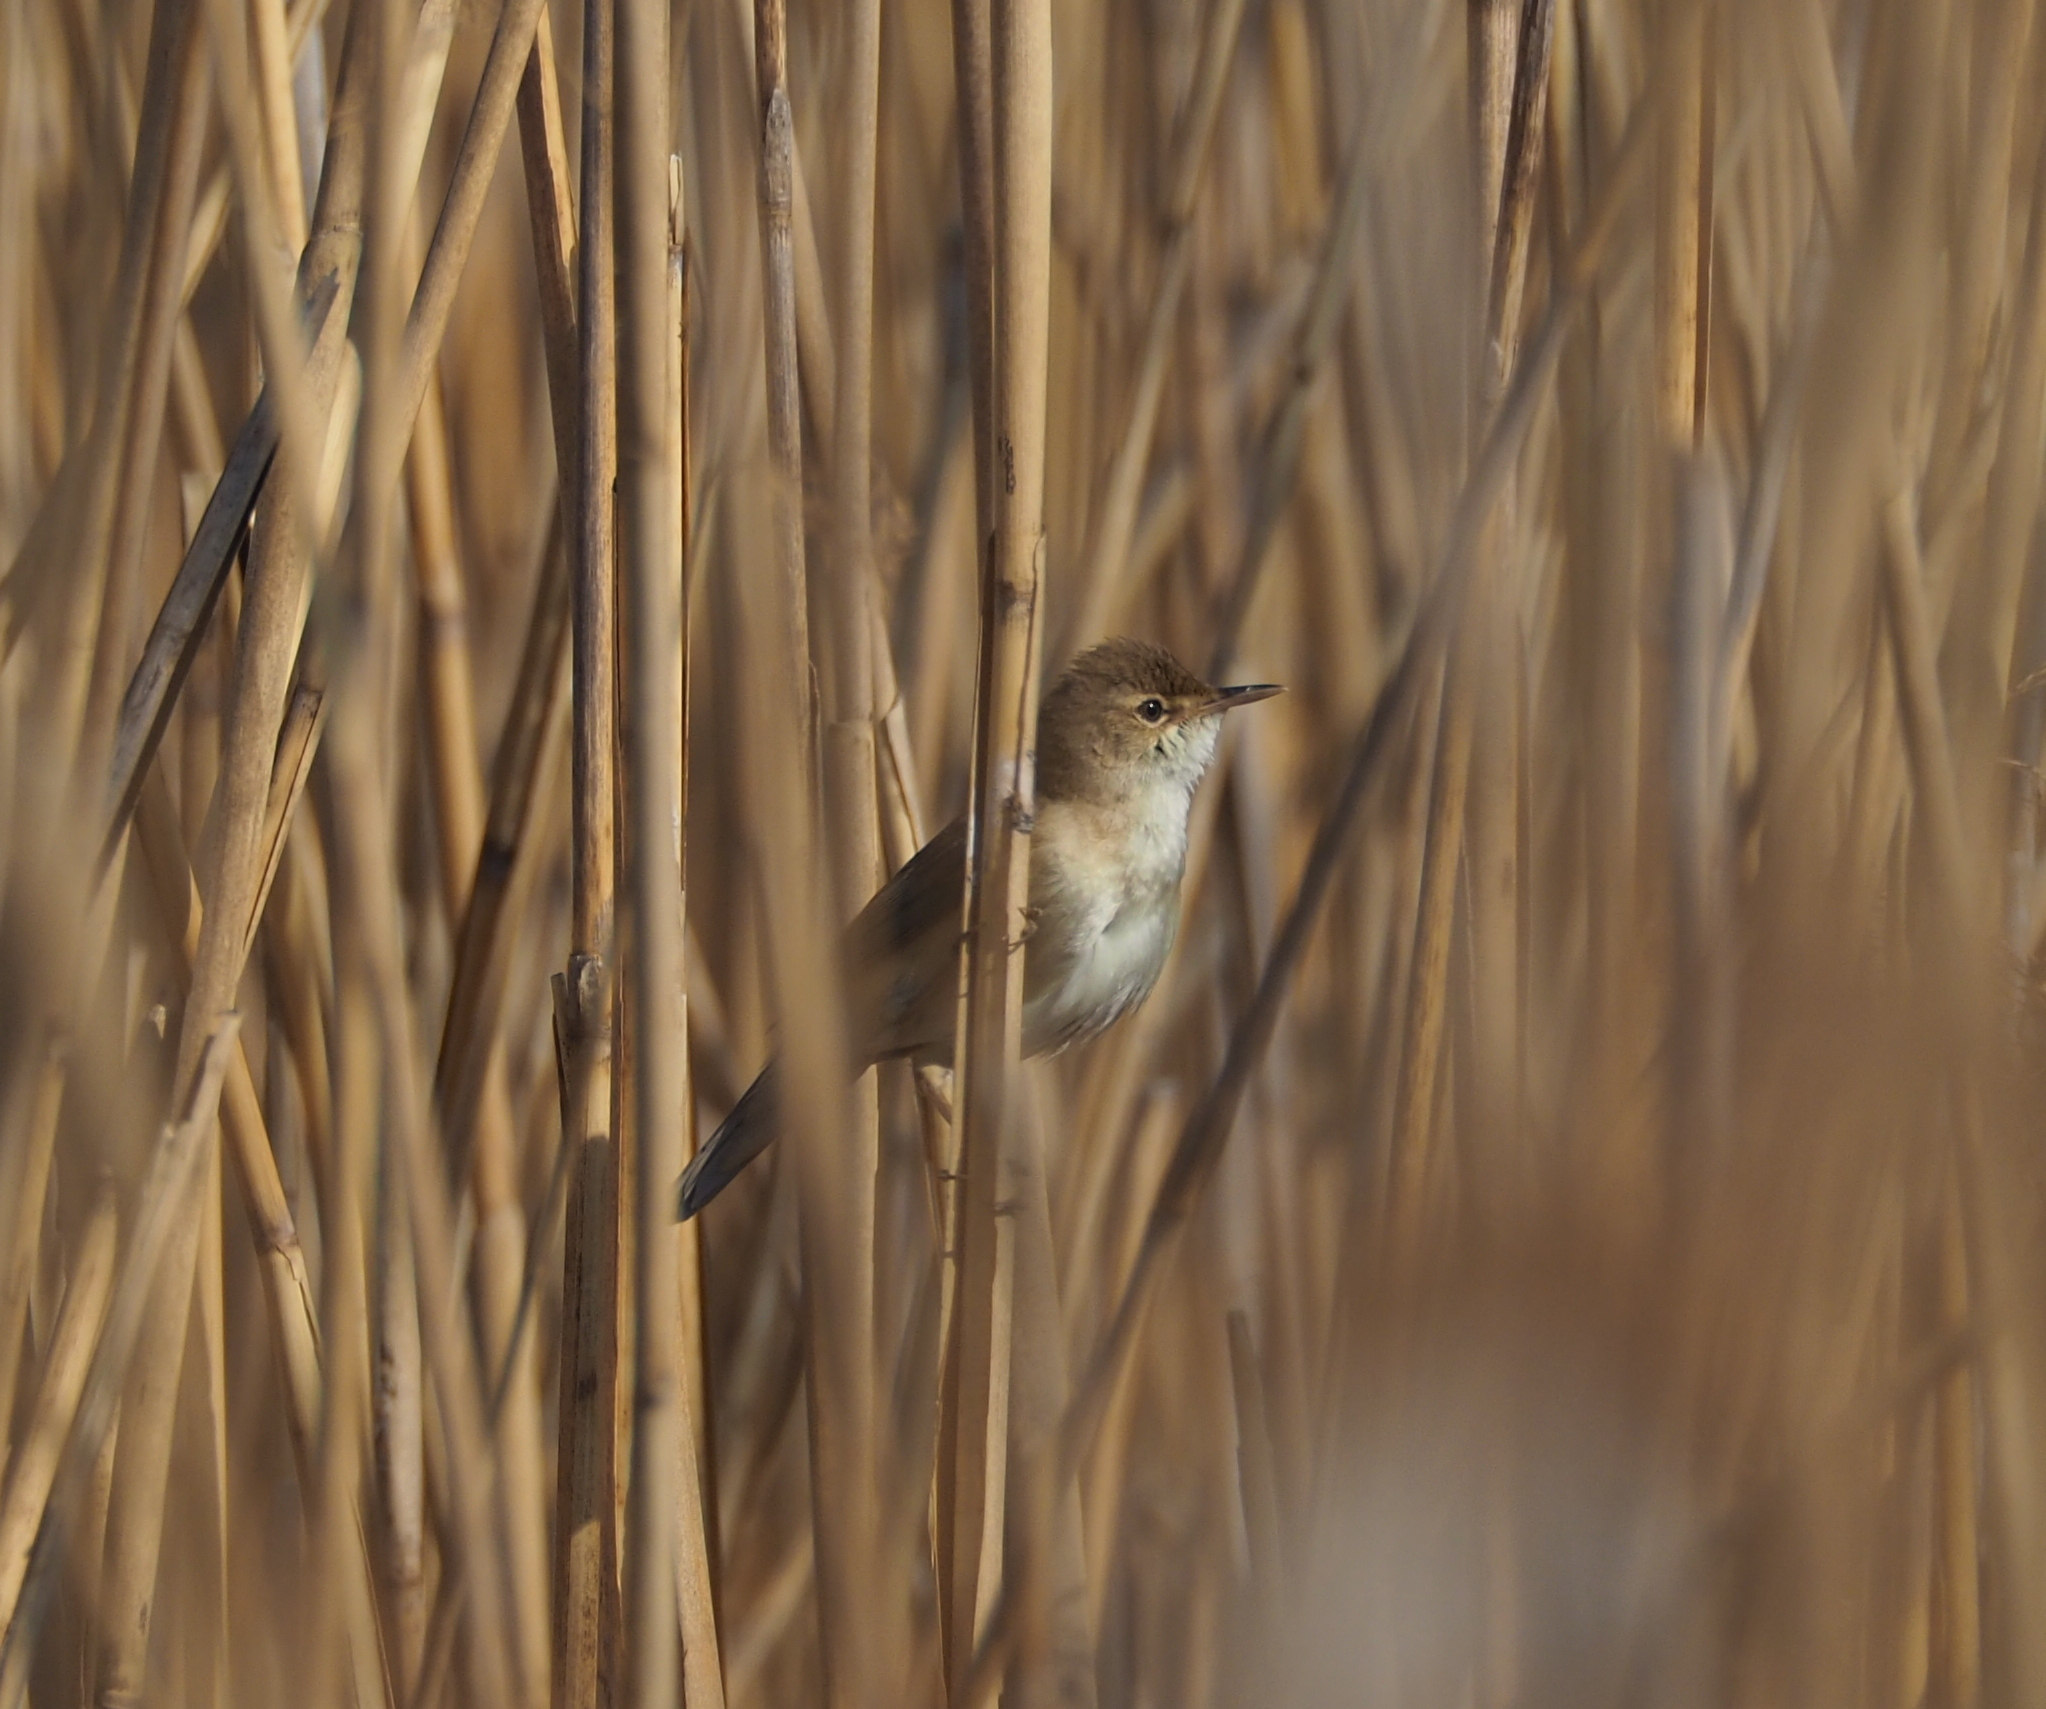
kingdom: Animalia
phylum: Chordata
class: Aves
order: Passeriformes
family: Acrocephalidae
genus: Acrocephalus
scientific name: Acrocephalus scirpaceus
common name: Eurasian reed warbler
